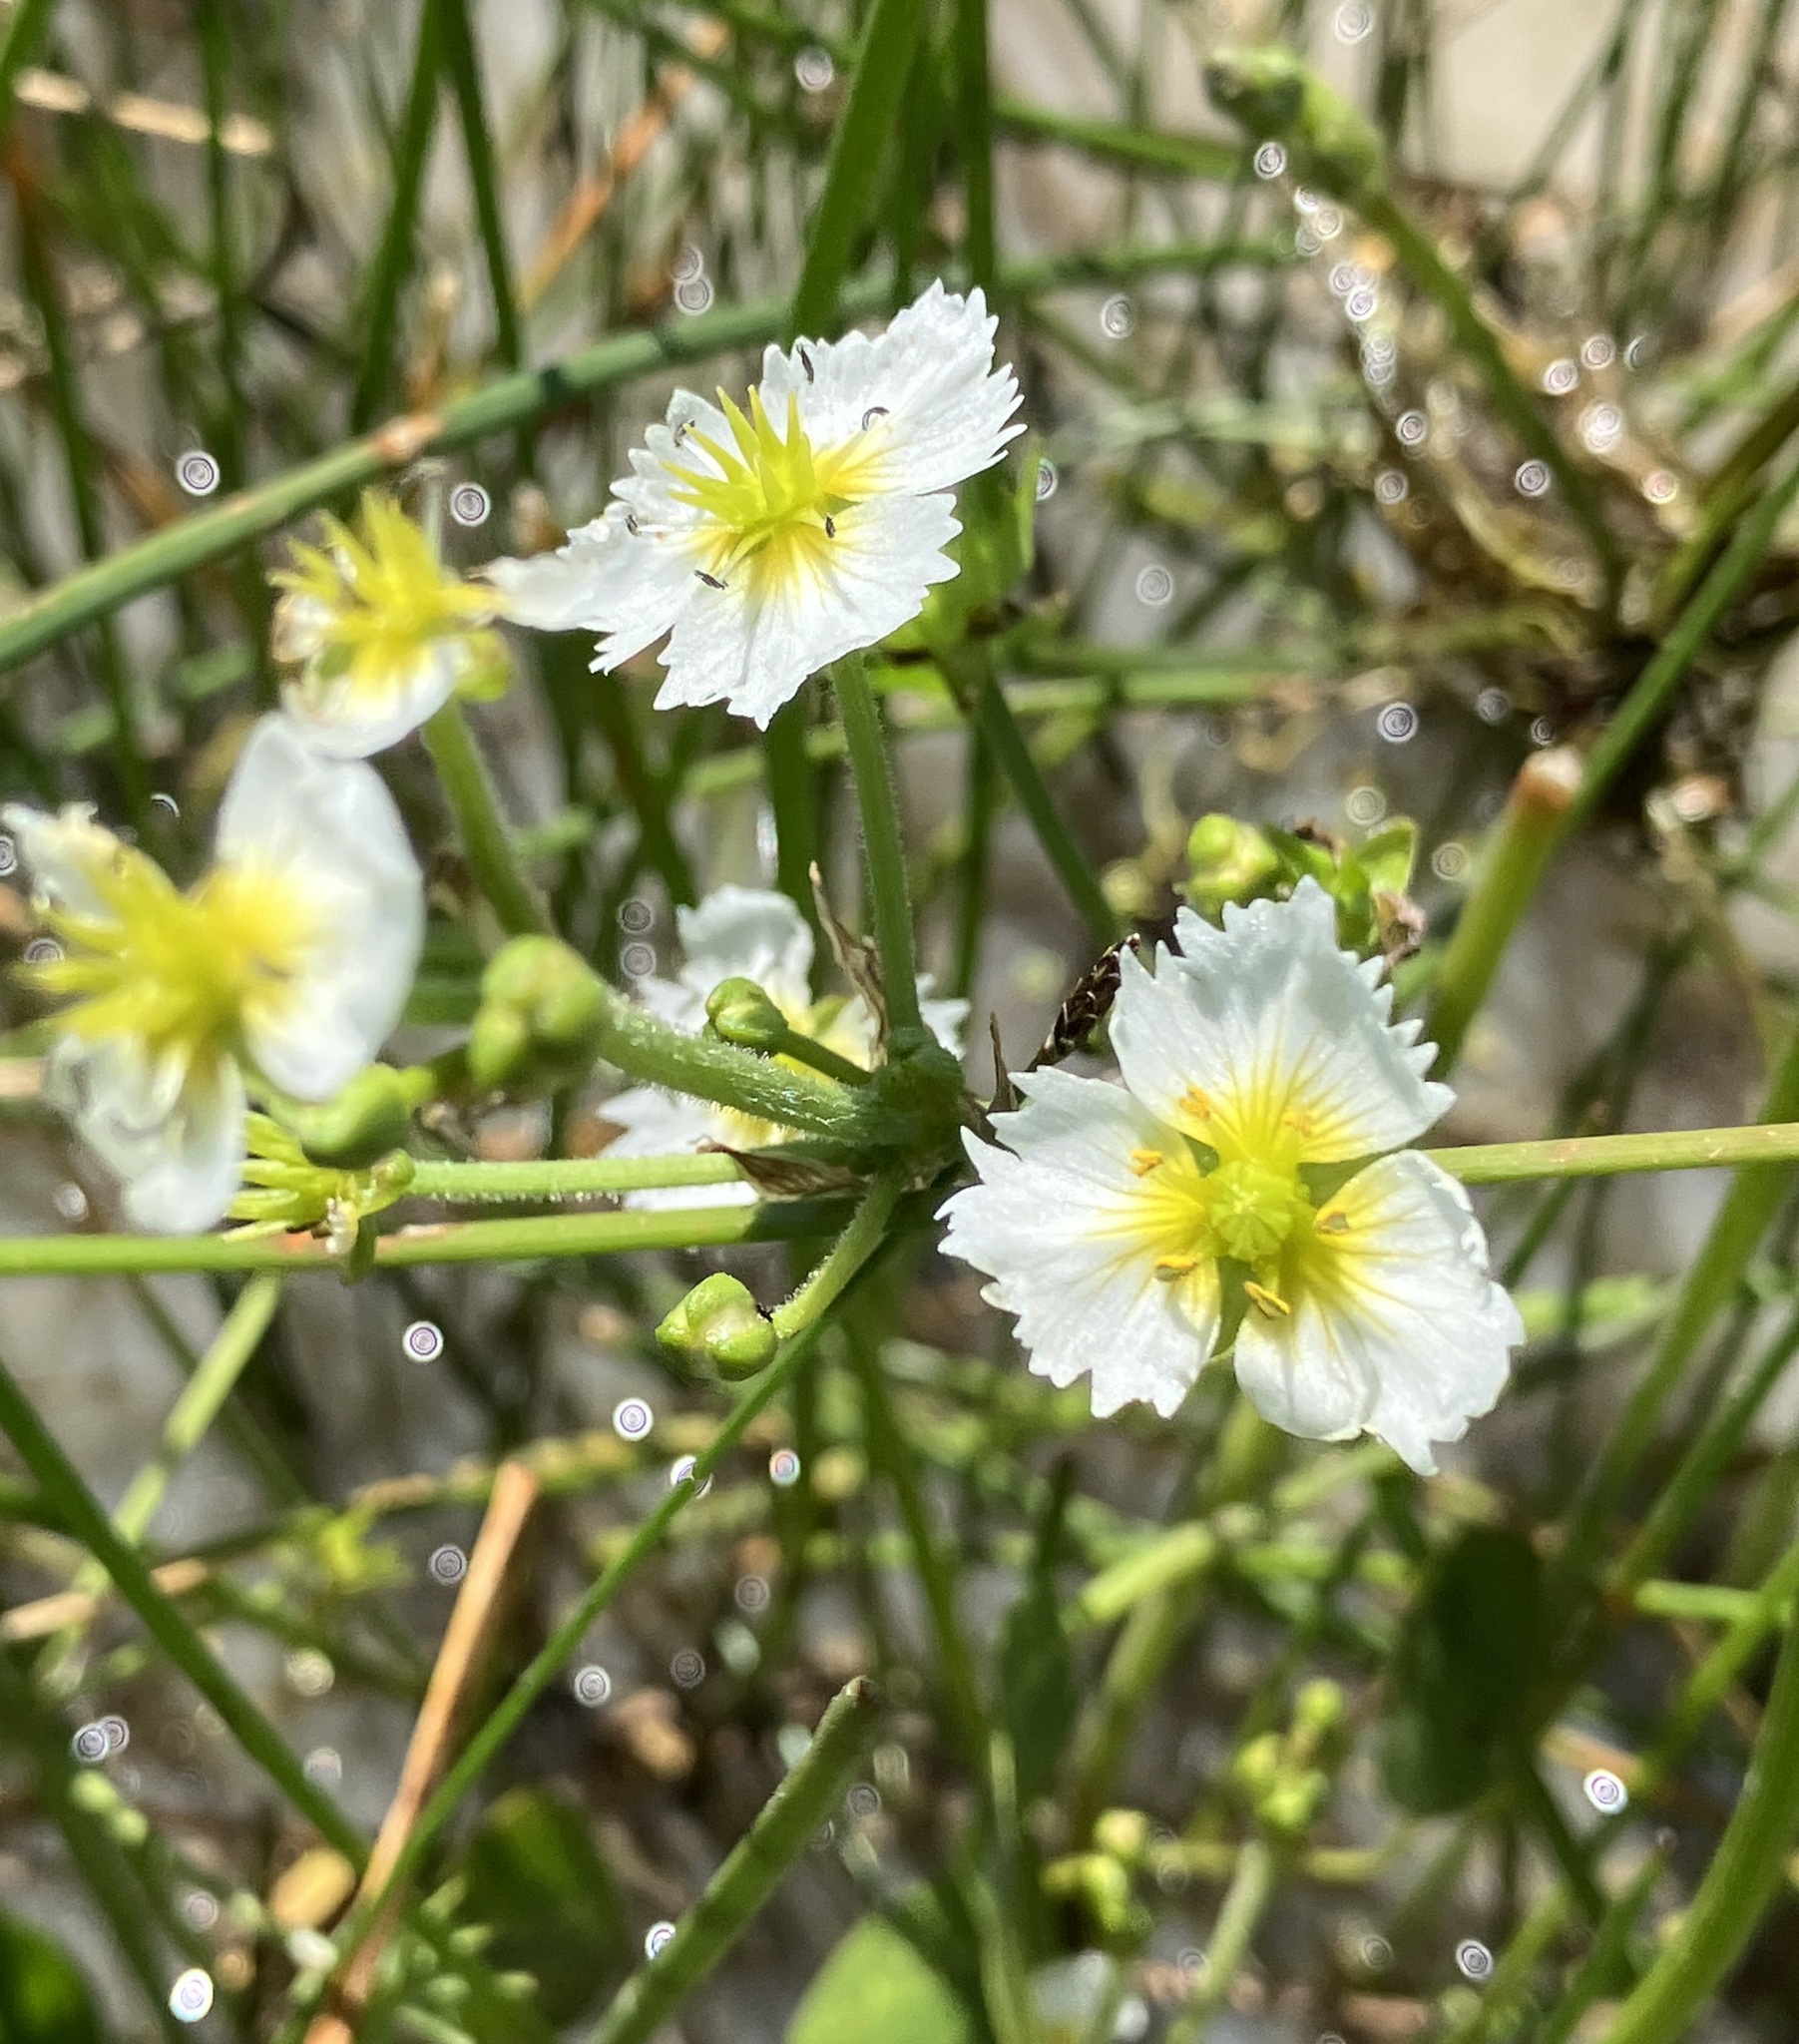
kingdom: Plantae
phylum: Tracheophyta
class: Liliopsida
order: Alismatales
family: Alismataceae
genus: Damasonium
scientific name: Damasonium californicum
